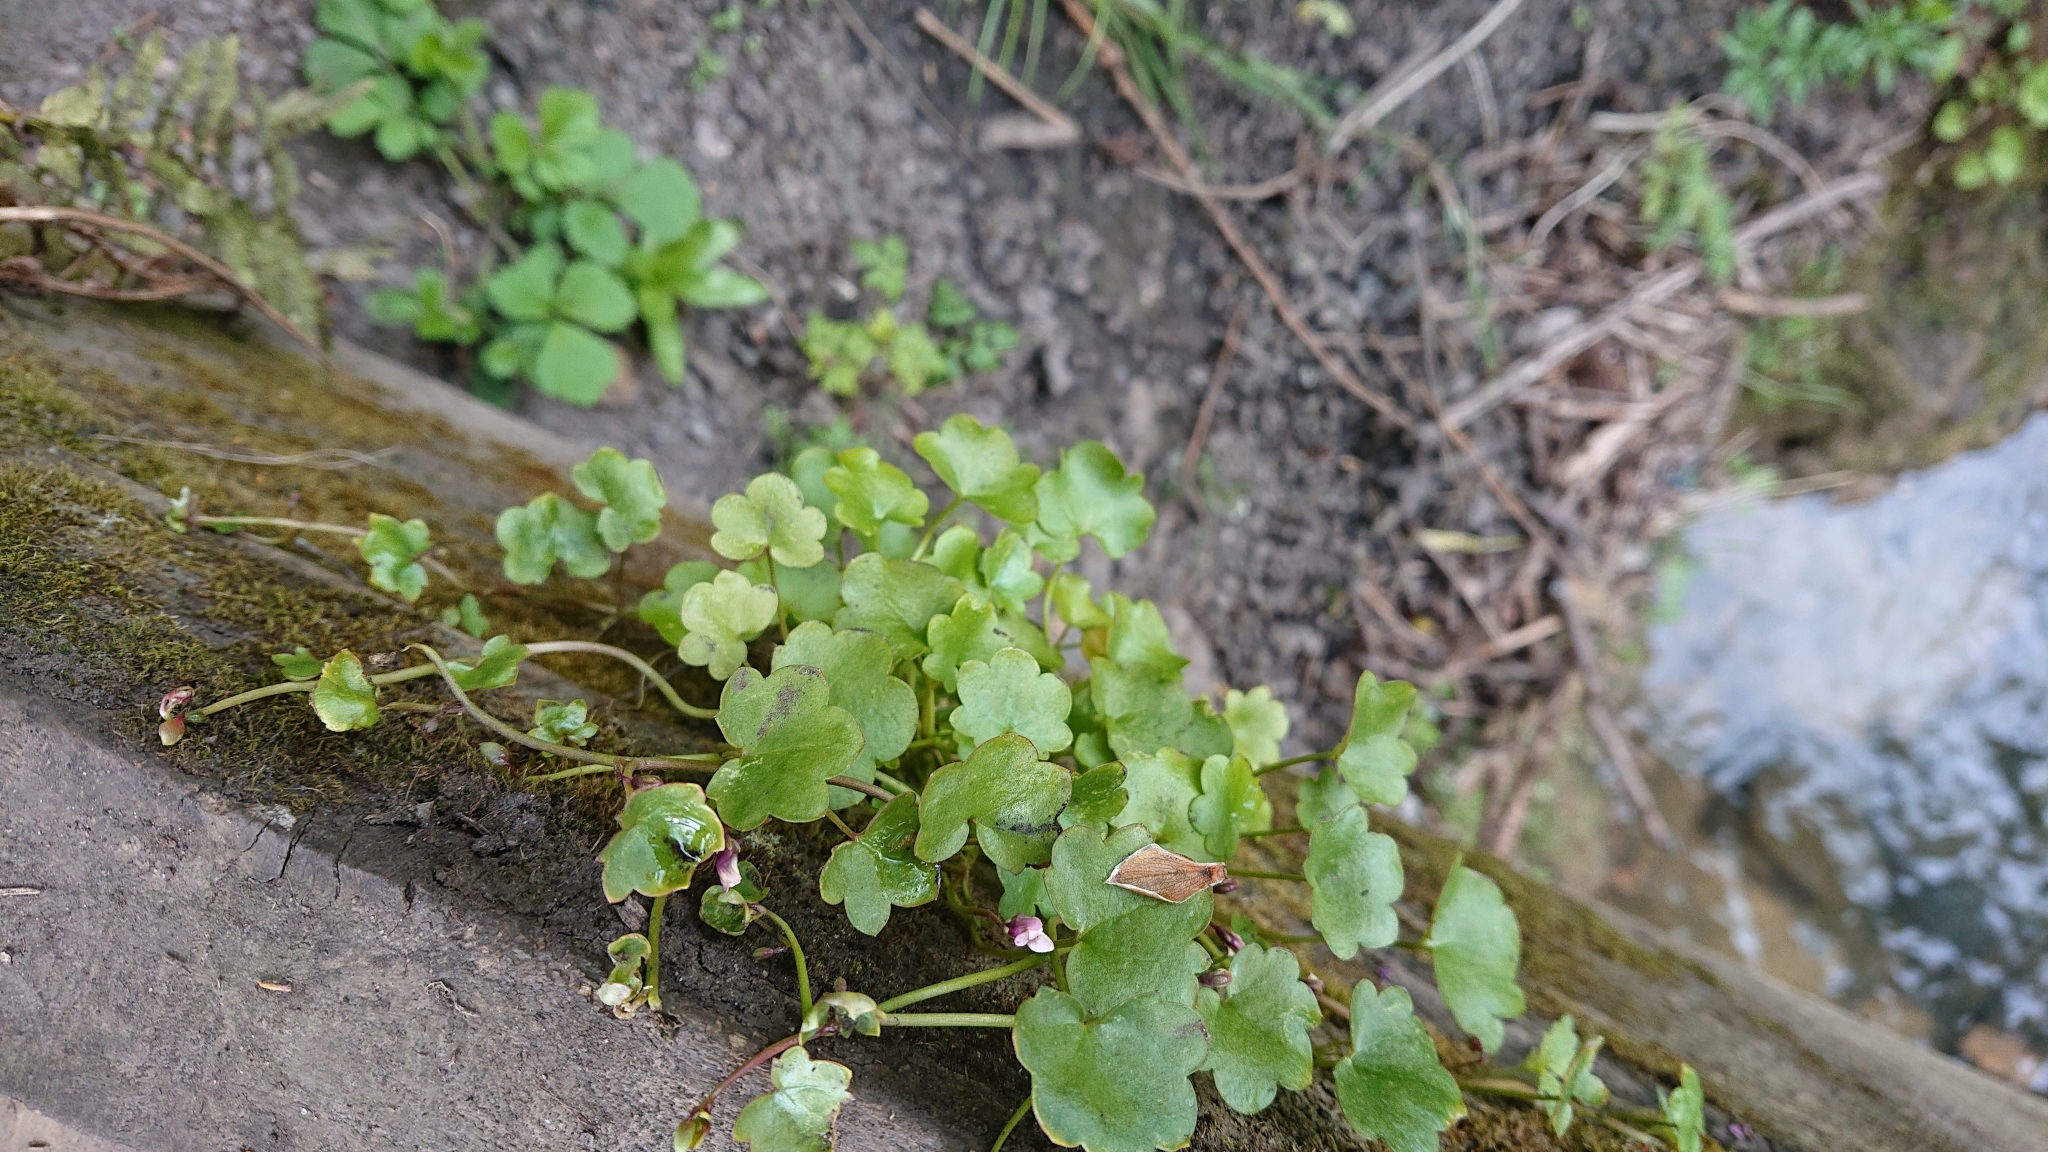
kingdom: Plantae
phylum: Tracheophyta
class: Magnoliopsida
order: Lamiales
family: Plantaginaceae
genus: Cymbalaria
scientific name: Cymbalaria muralis
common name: Ivy-leaved toadflax
